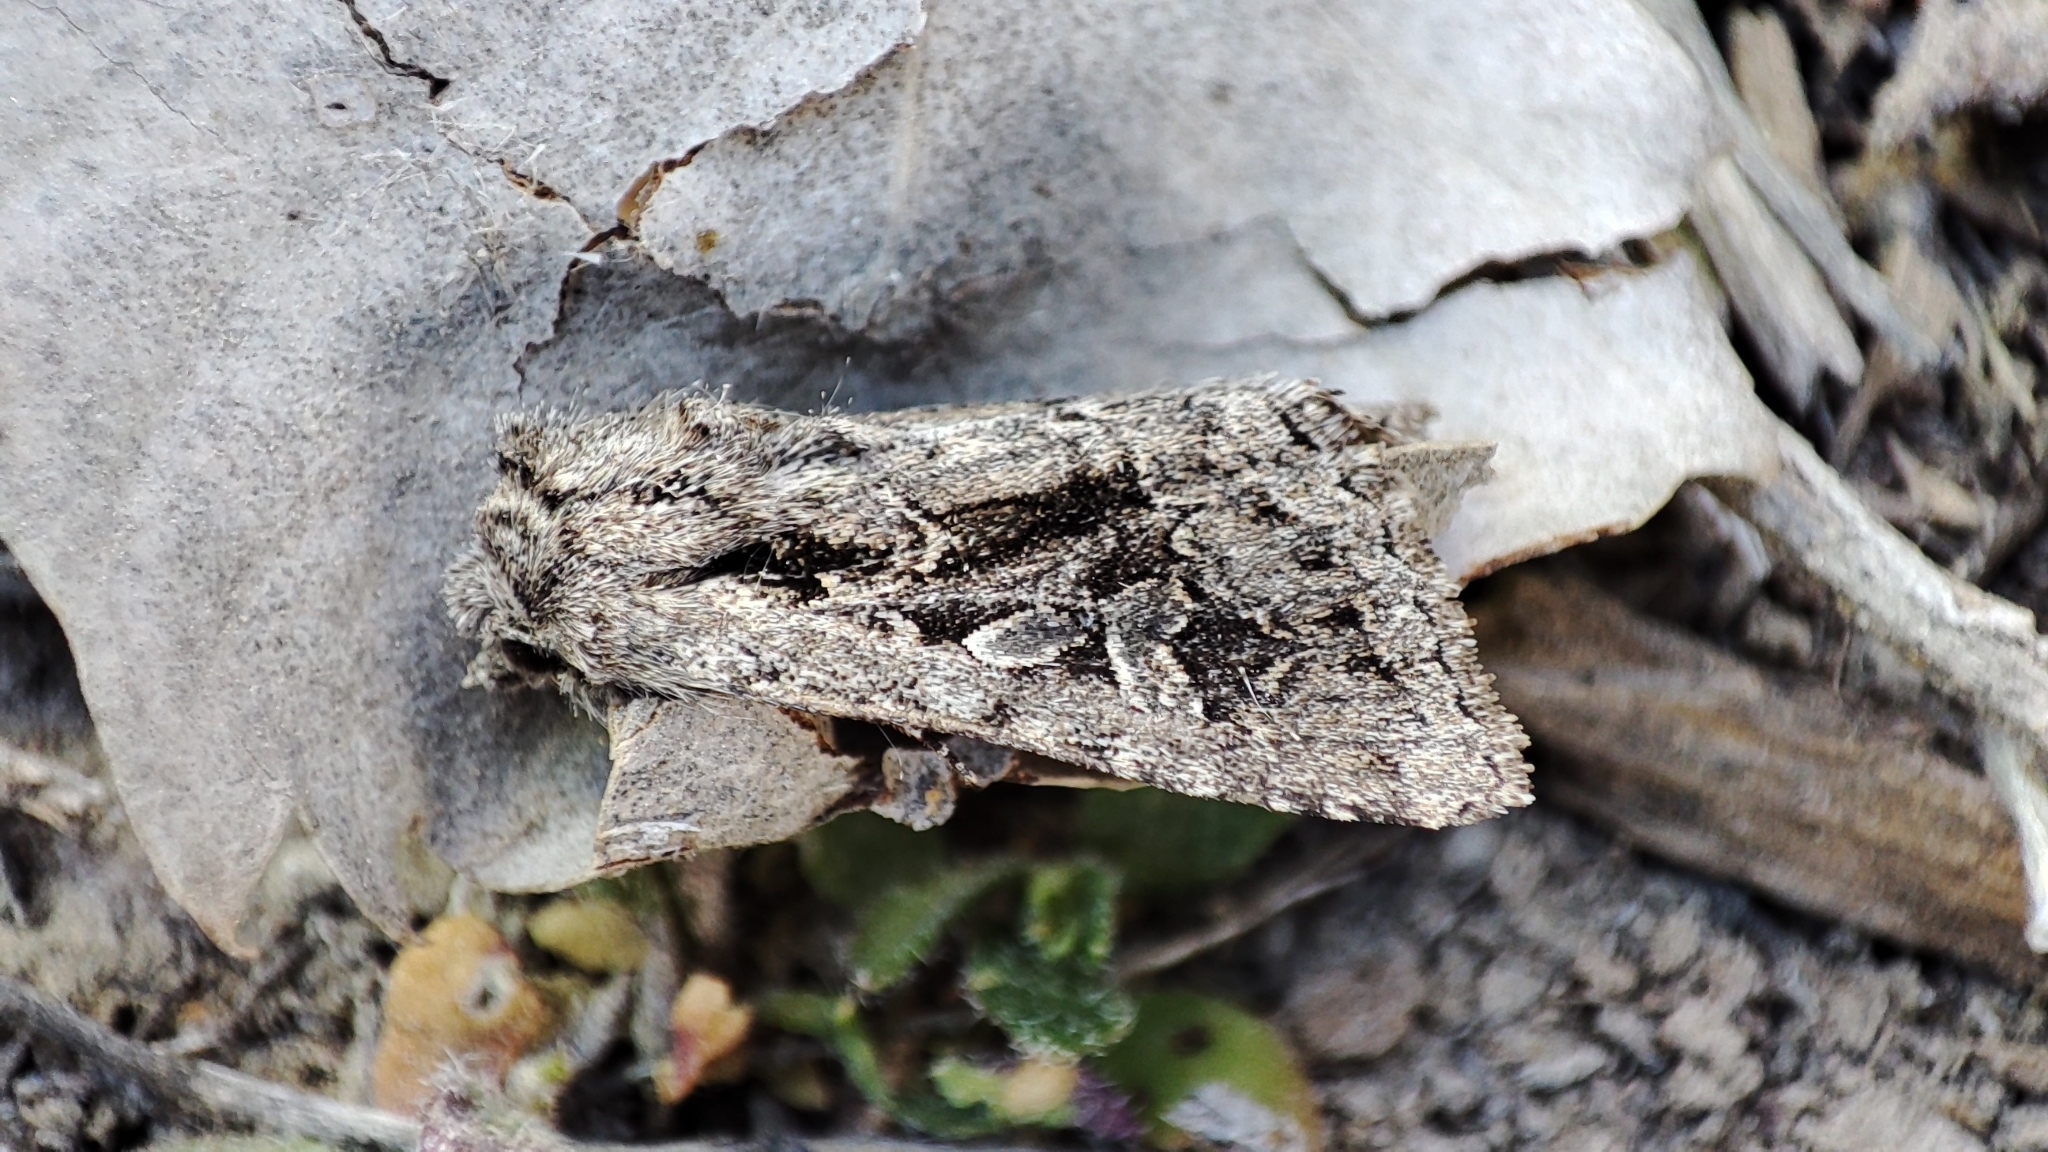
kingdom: Animalia
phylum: Arthropoda
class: Insecta
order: Lepidoptera
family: Noctuidae
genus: Anarta
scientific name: Anarta ptochica
